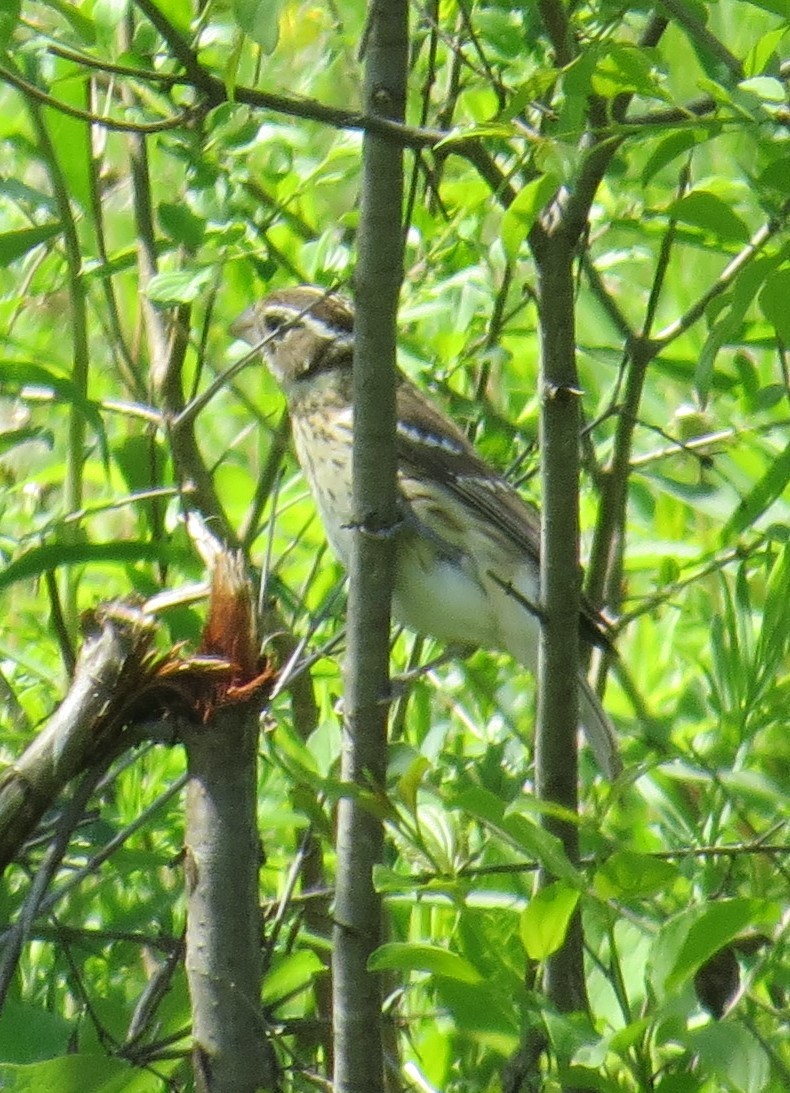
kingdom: Animalia
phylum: Chordata
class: Aves
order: Passeriformes
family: Cardinalidae
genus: Pheucticus
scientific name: Pheucticus ludovicianus
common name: Rose-breasted grosbeak
